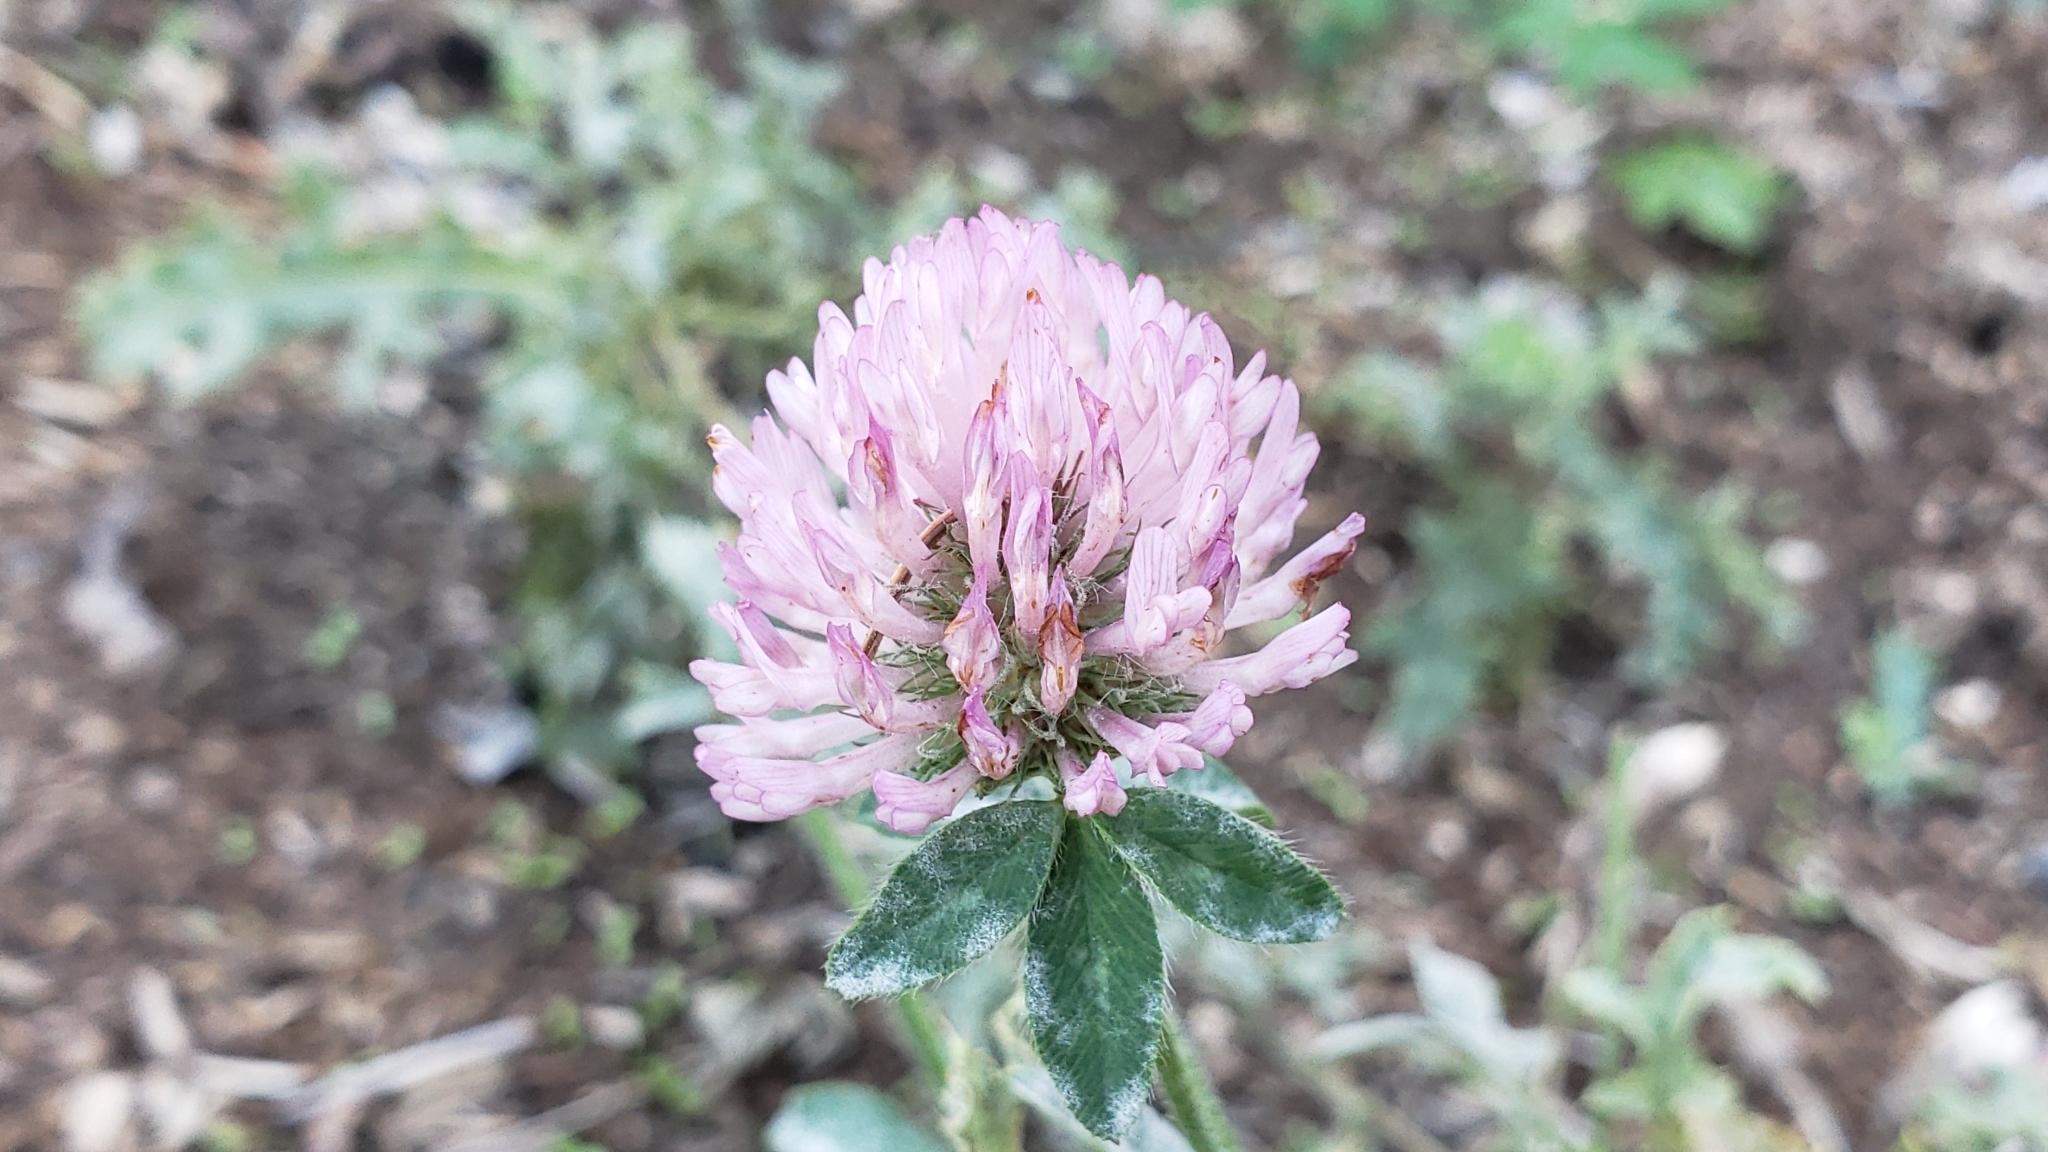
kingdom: Plantae
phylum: Tracheophyta
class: Magnoliopsida
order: Fabales
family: Fabaceae
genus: Trifolium
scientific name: Trifolium pratense
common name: Red clover
